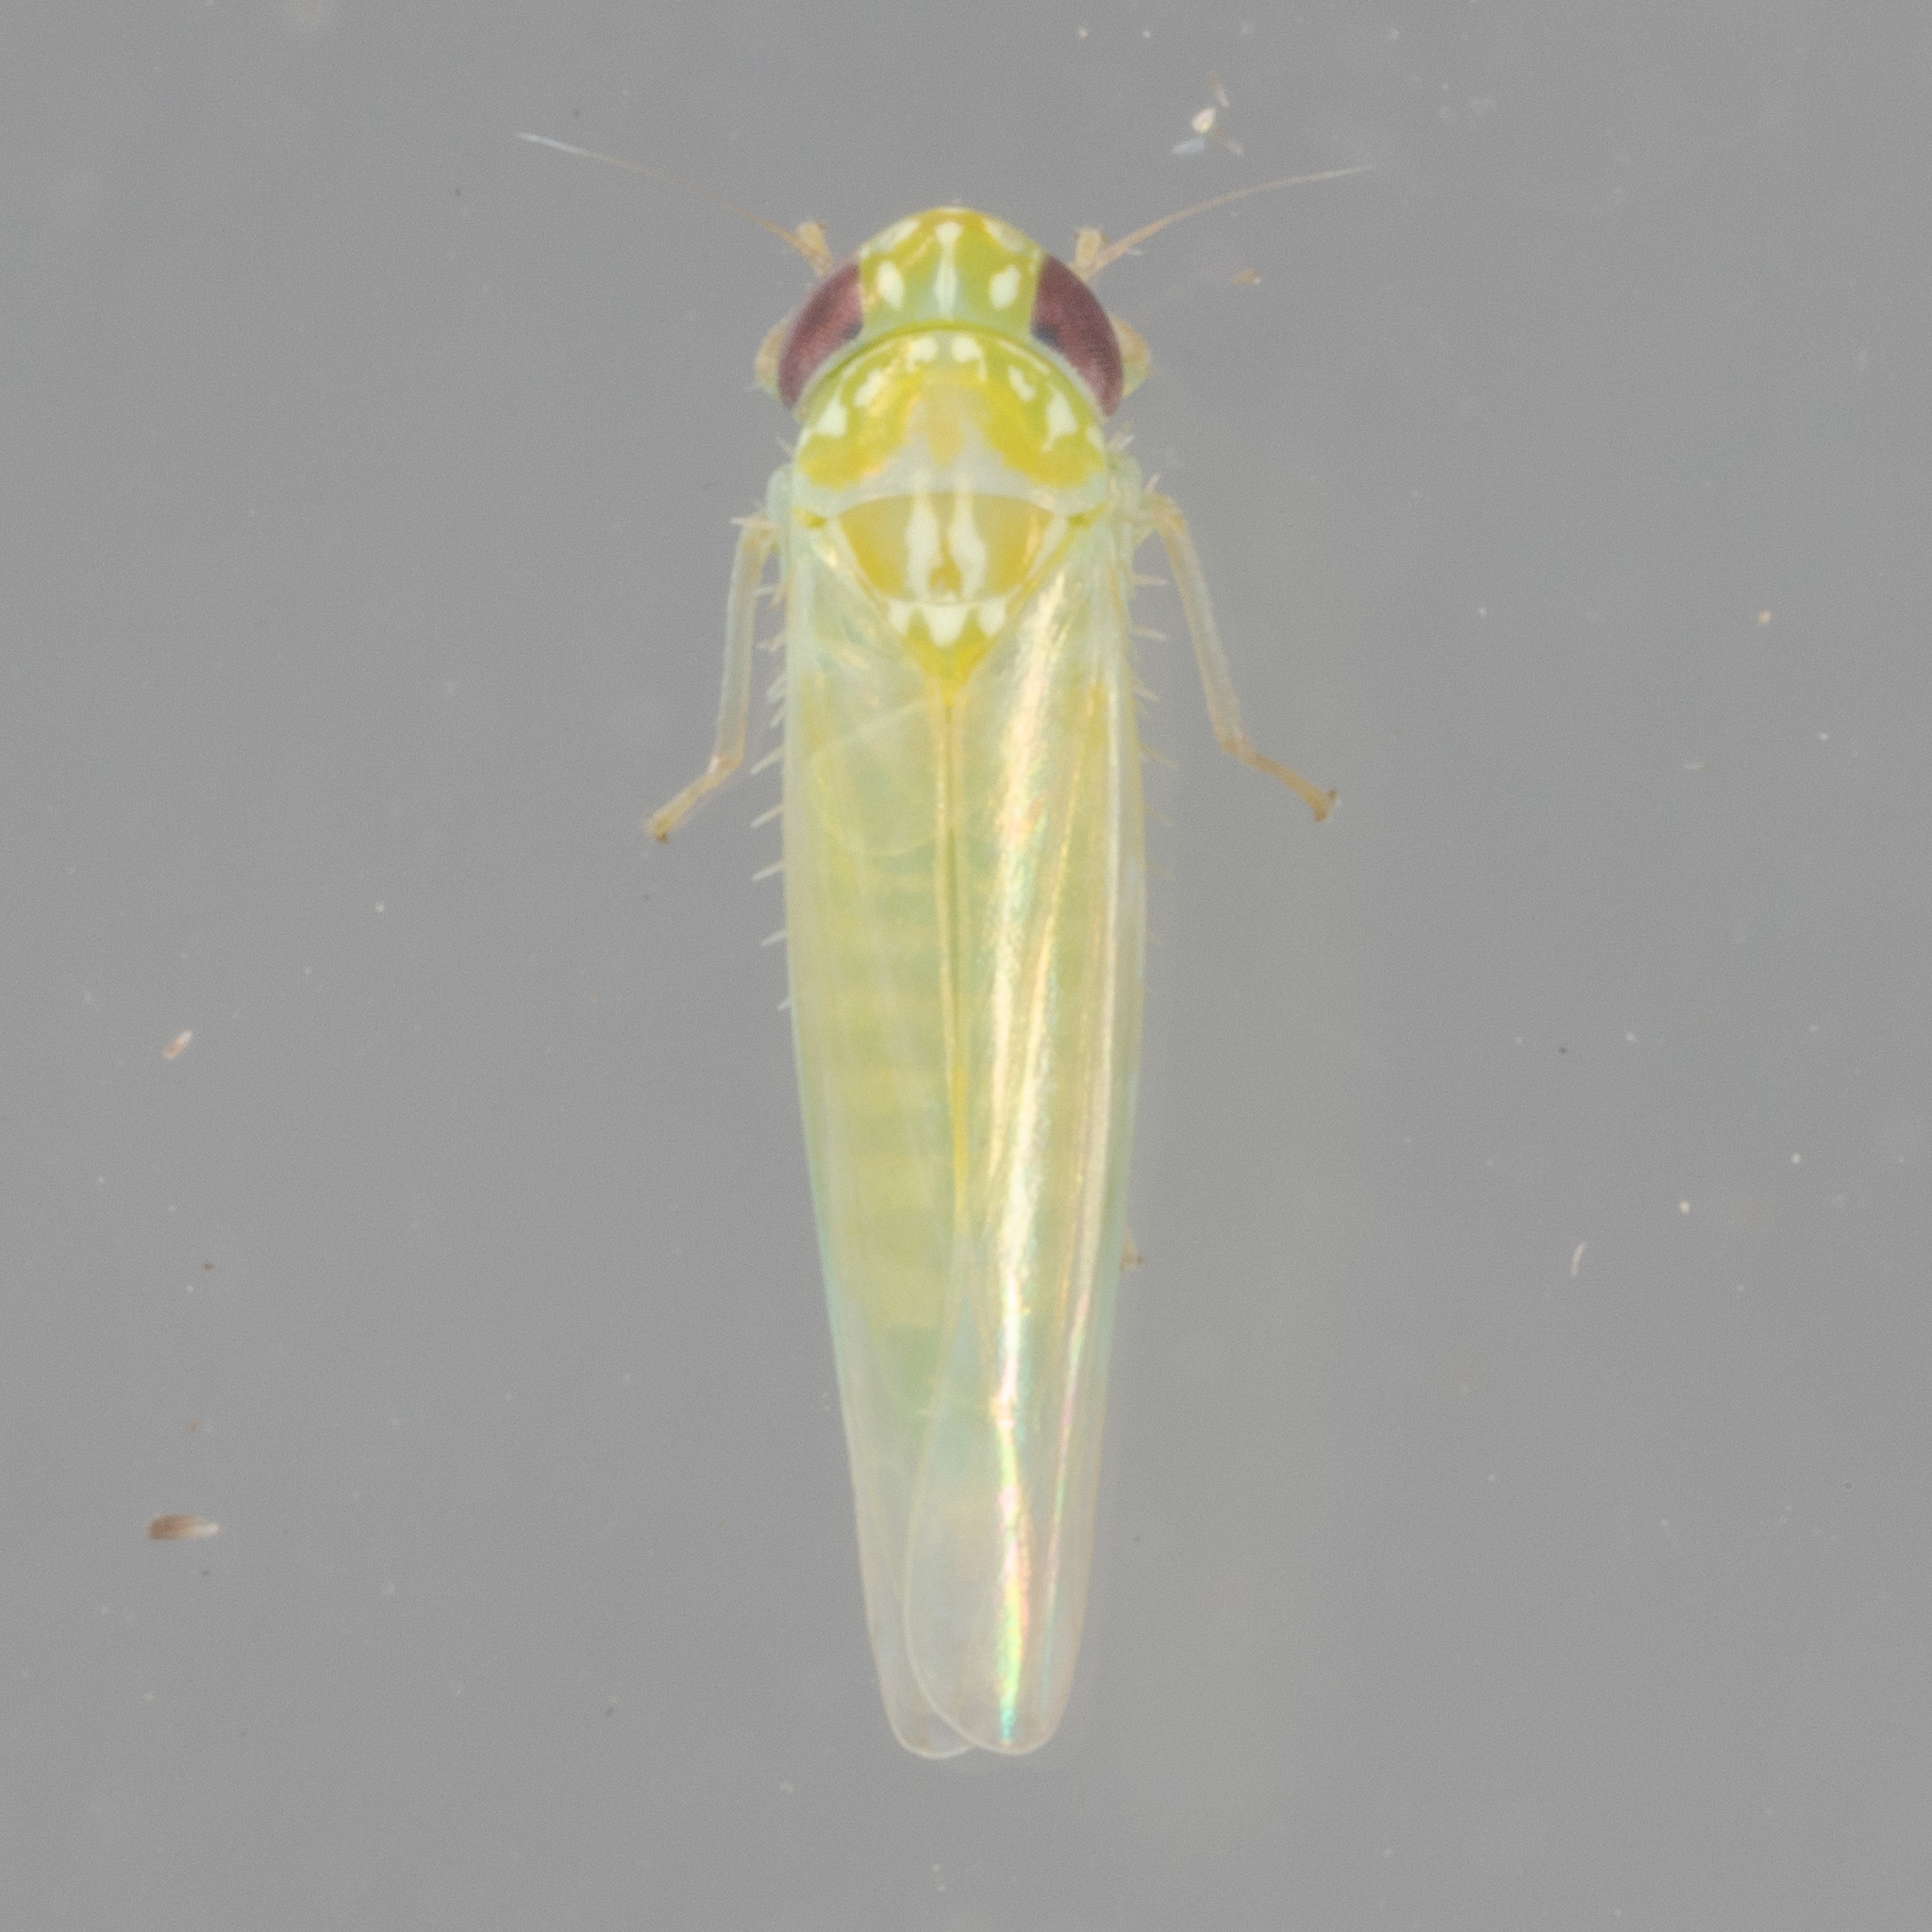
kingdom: Animalia
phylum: Arthropoda
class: Insecta
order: Hemiptera
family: Cicadellidae
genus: Empoasca
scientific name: Empoasca fabae
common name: Potato leafhopper
